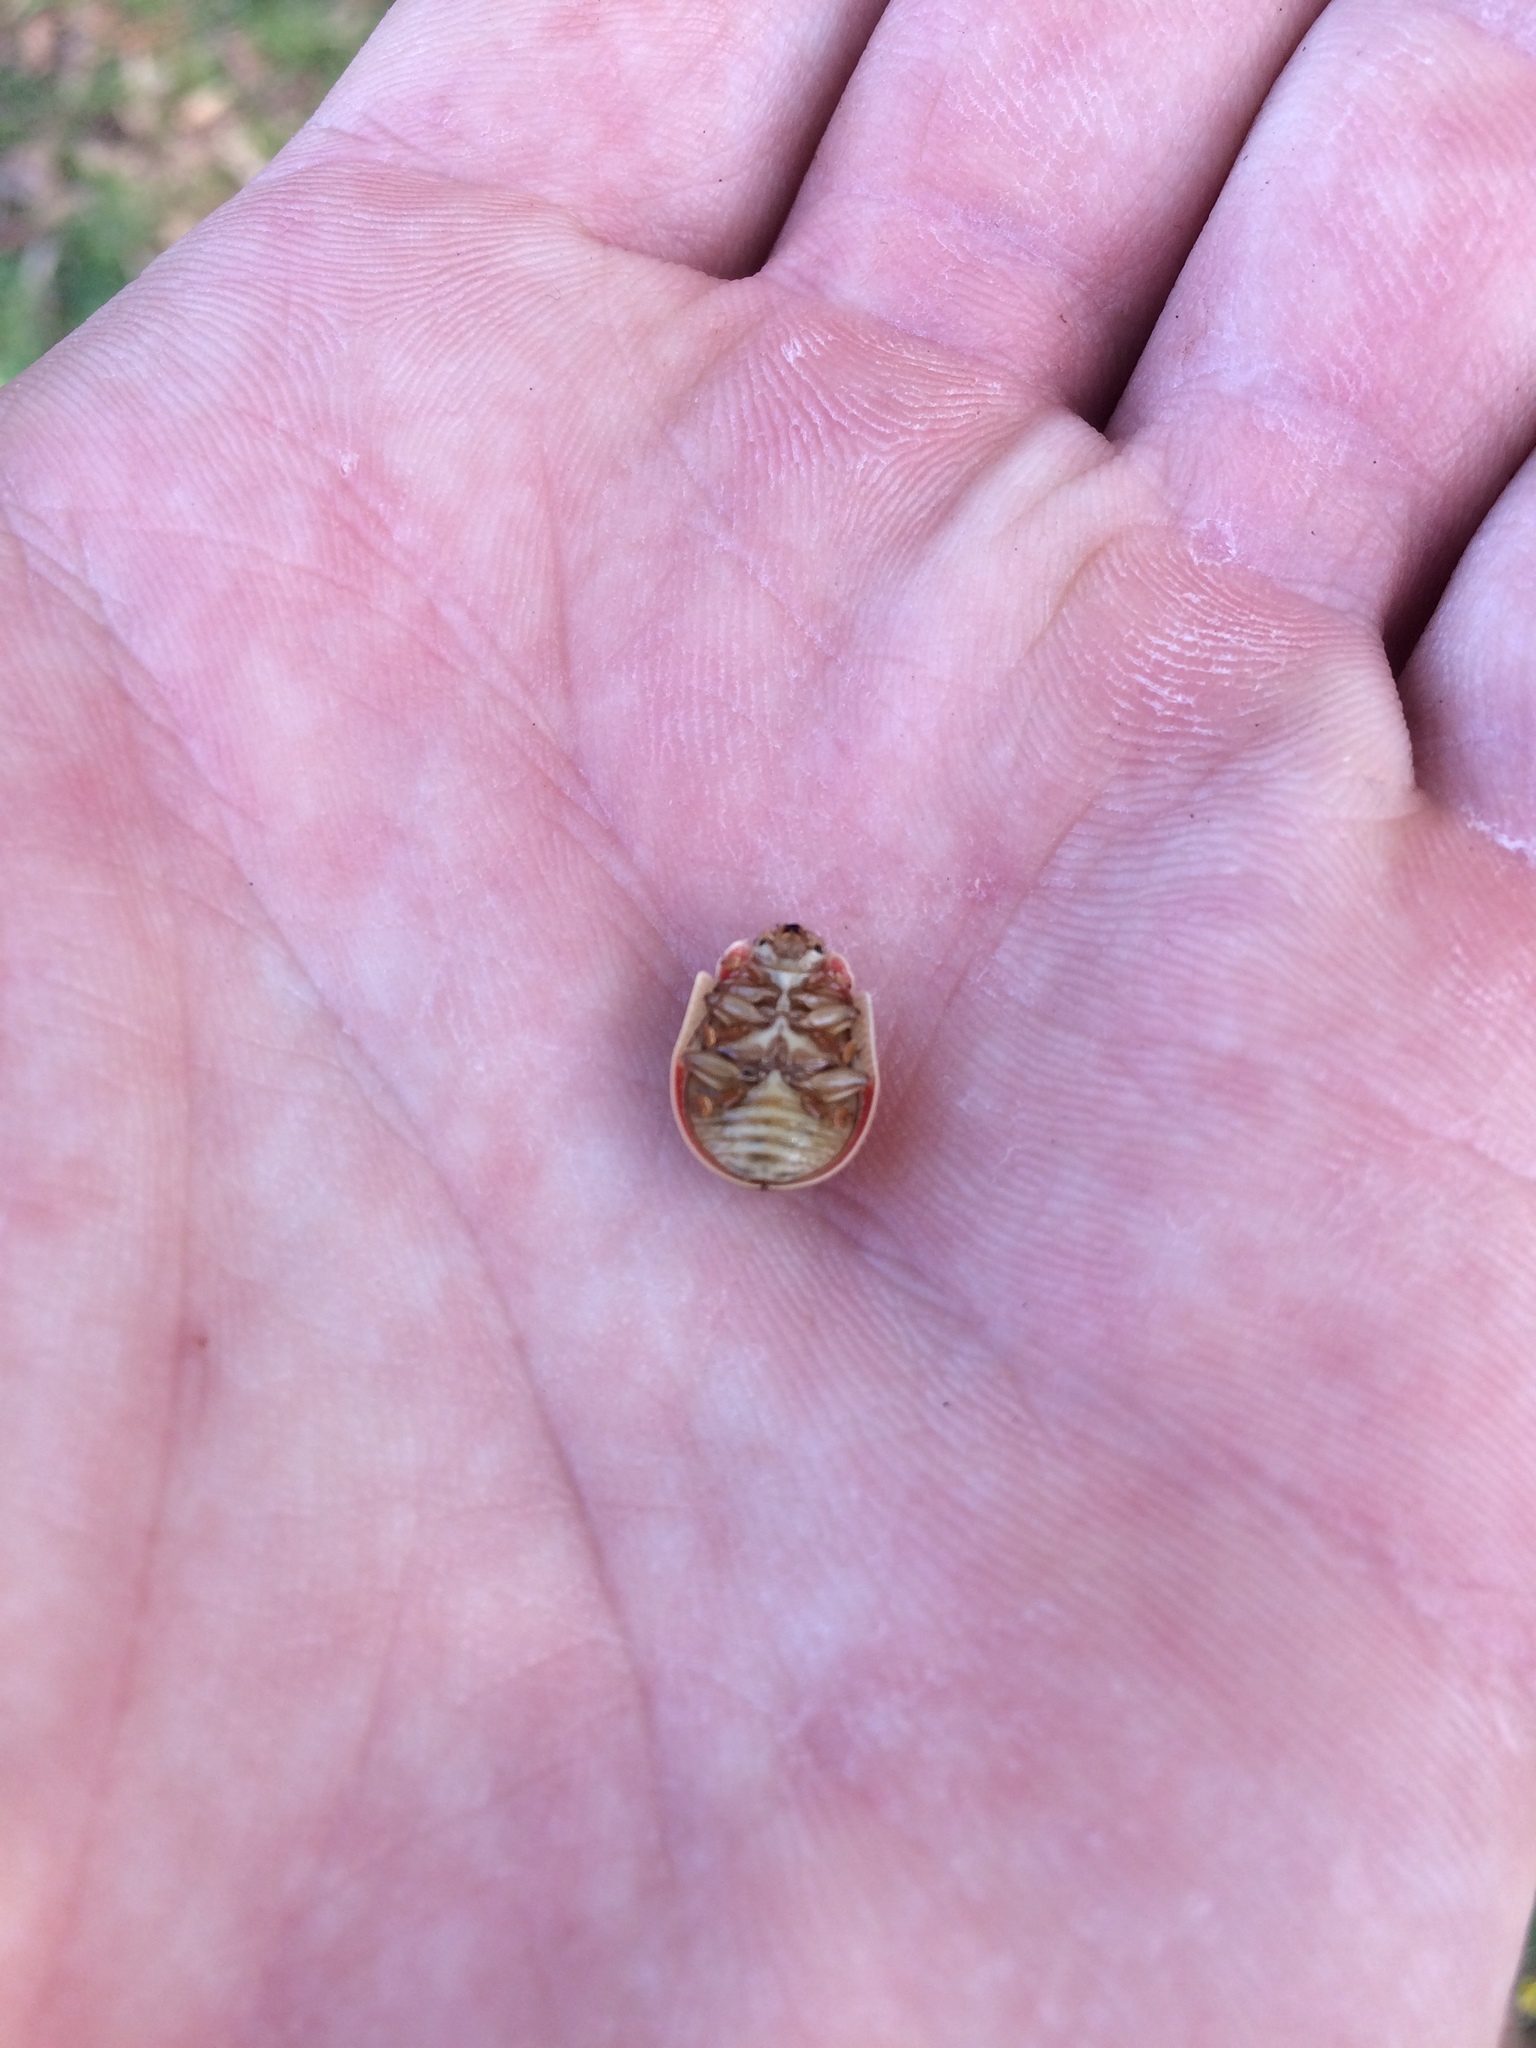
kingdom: Animalia
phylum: Arthropoda
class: Insecta
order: Coleoptera
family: Chrysomelidae
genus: Paropsis
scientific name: Paropsis charybdis
